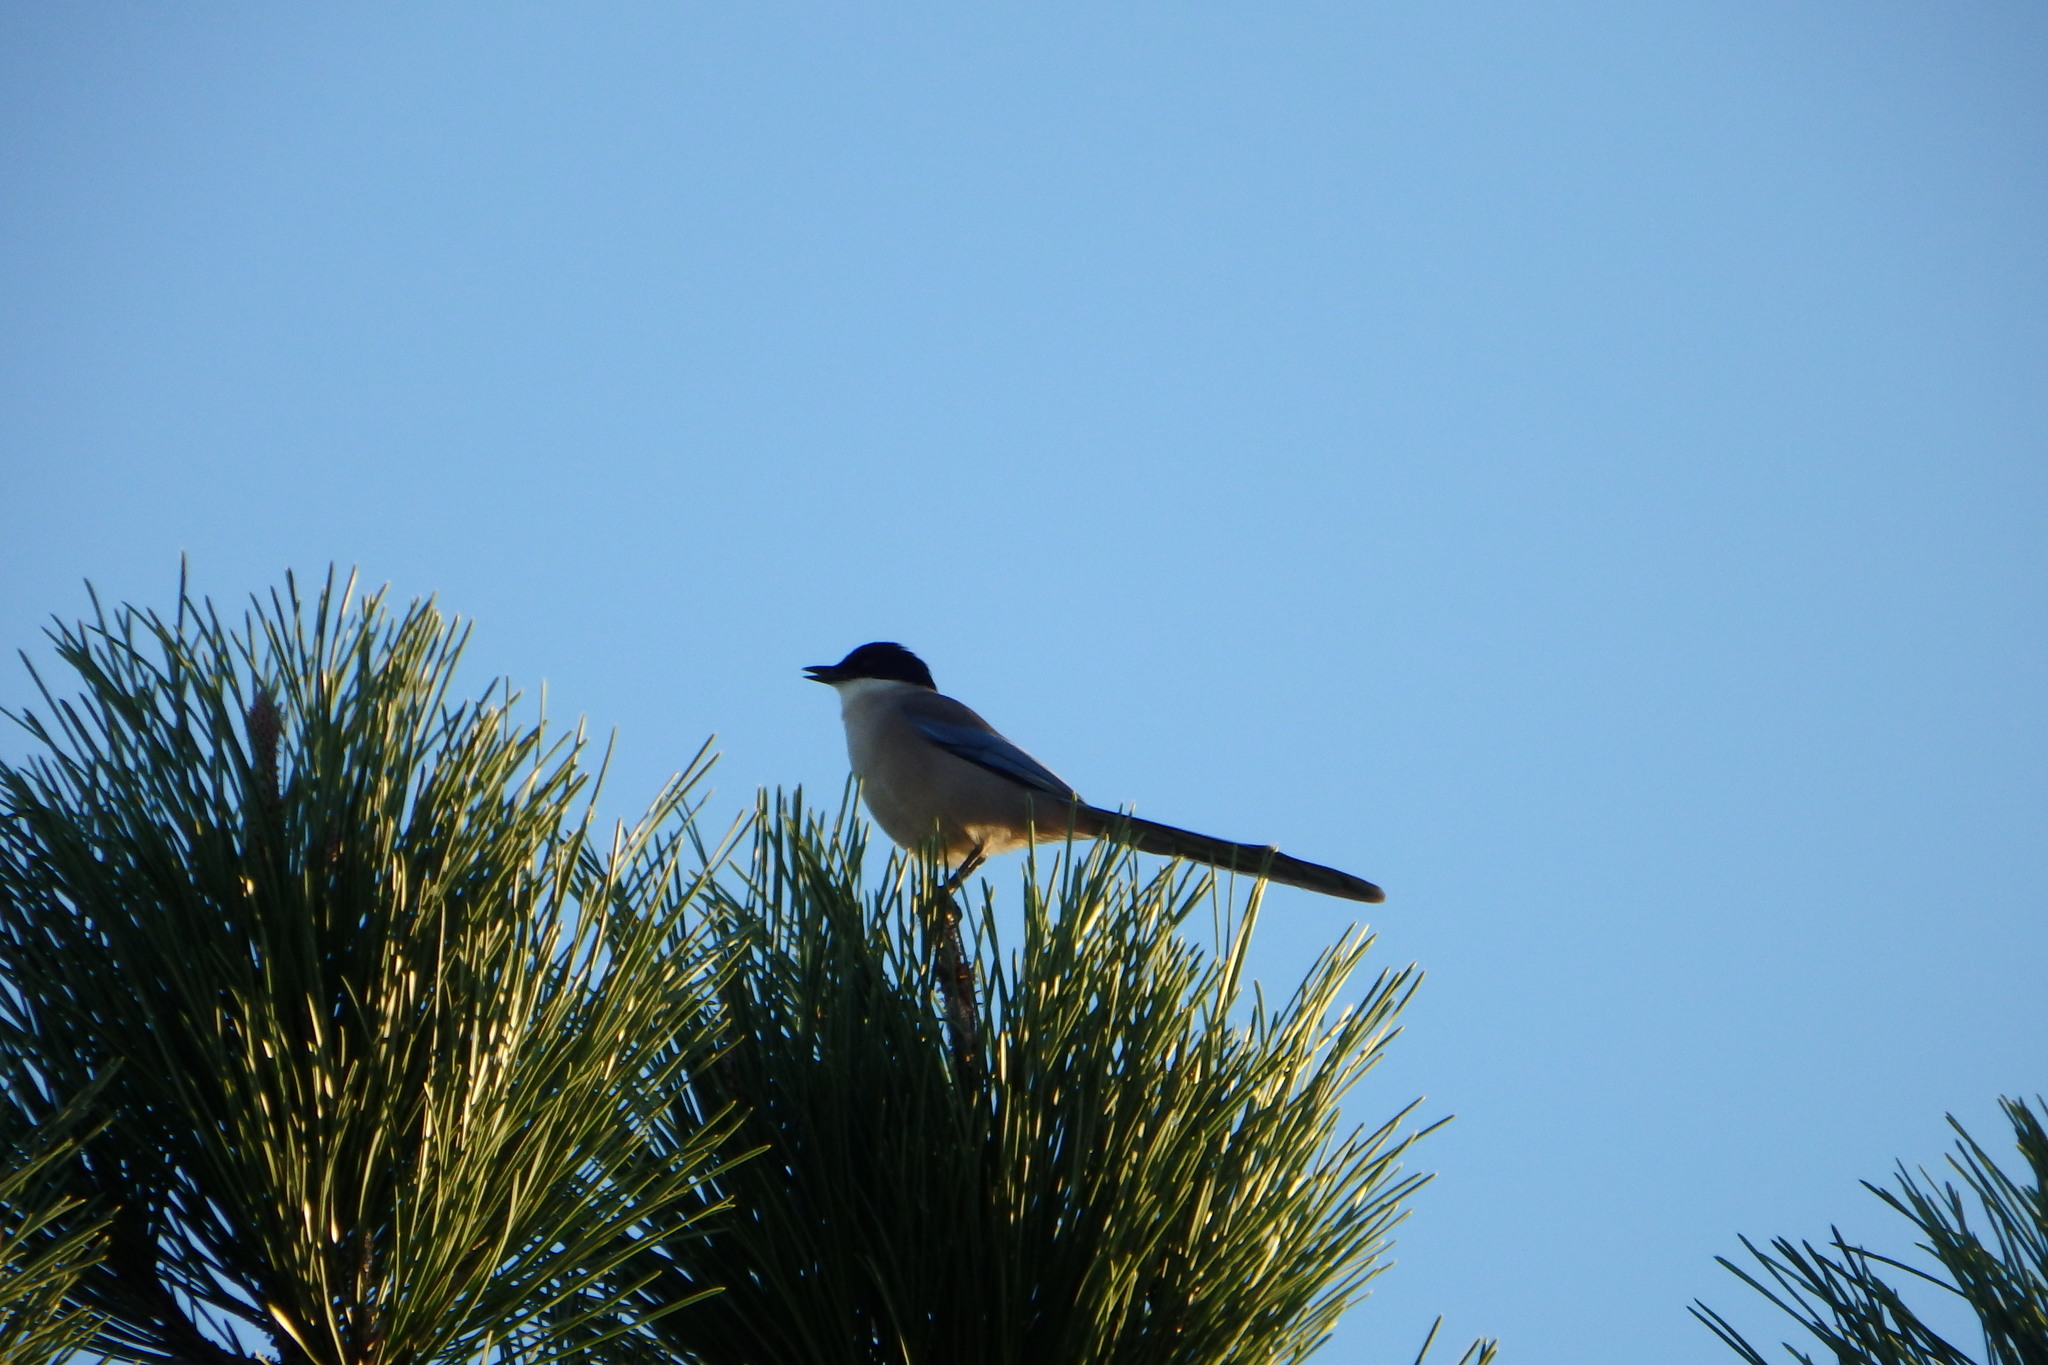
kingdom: Animalia
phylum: Chordata
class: Aves
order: Passeriformes
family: Corvidae
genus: Cyanopica
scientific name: Cyanopica cooki
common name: Iberian magpie
